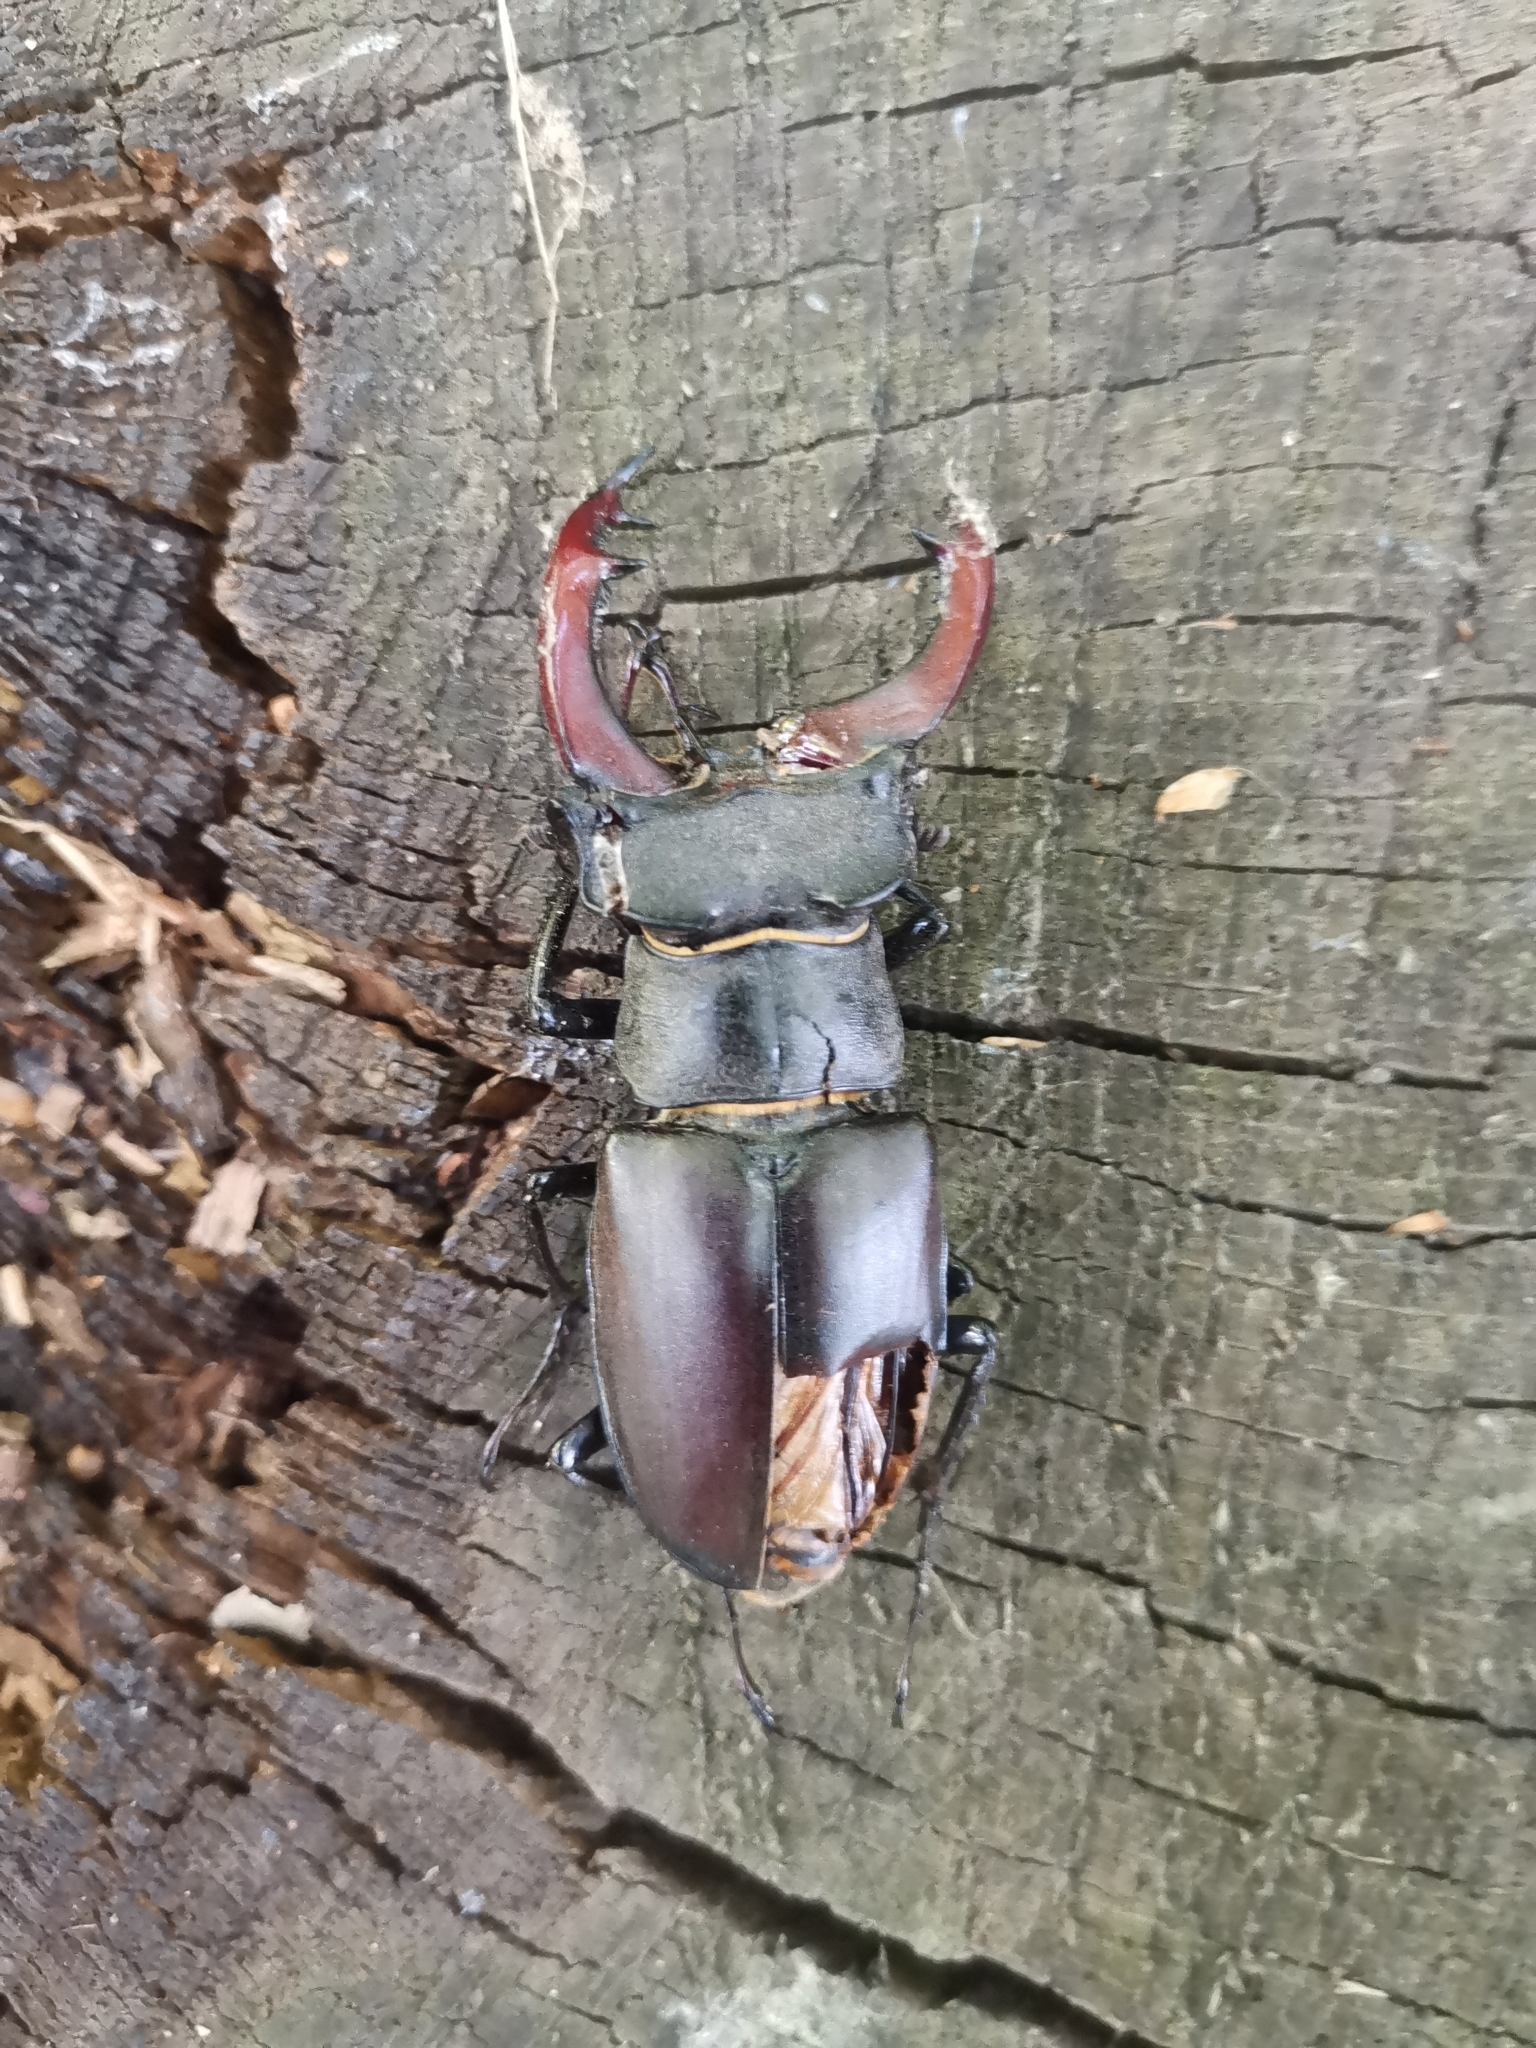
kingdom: Animalia
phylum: Arthropoda
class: Insecta
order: Coleoptera
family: Lucanidae
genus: Lucanus
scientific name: Lucanus cervus
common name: Stag beetle
